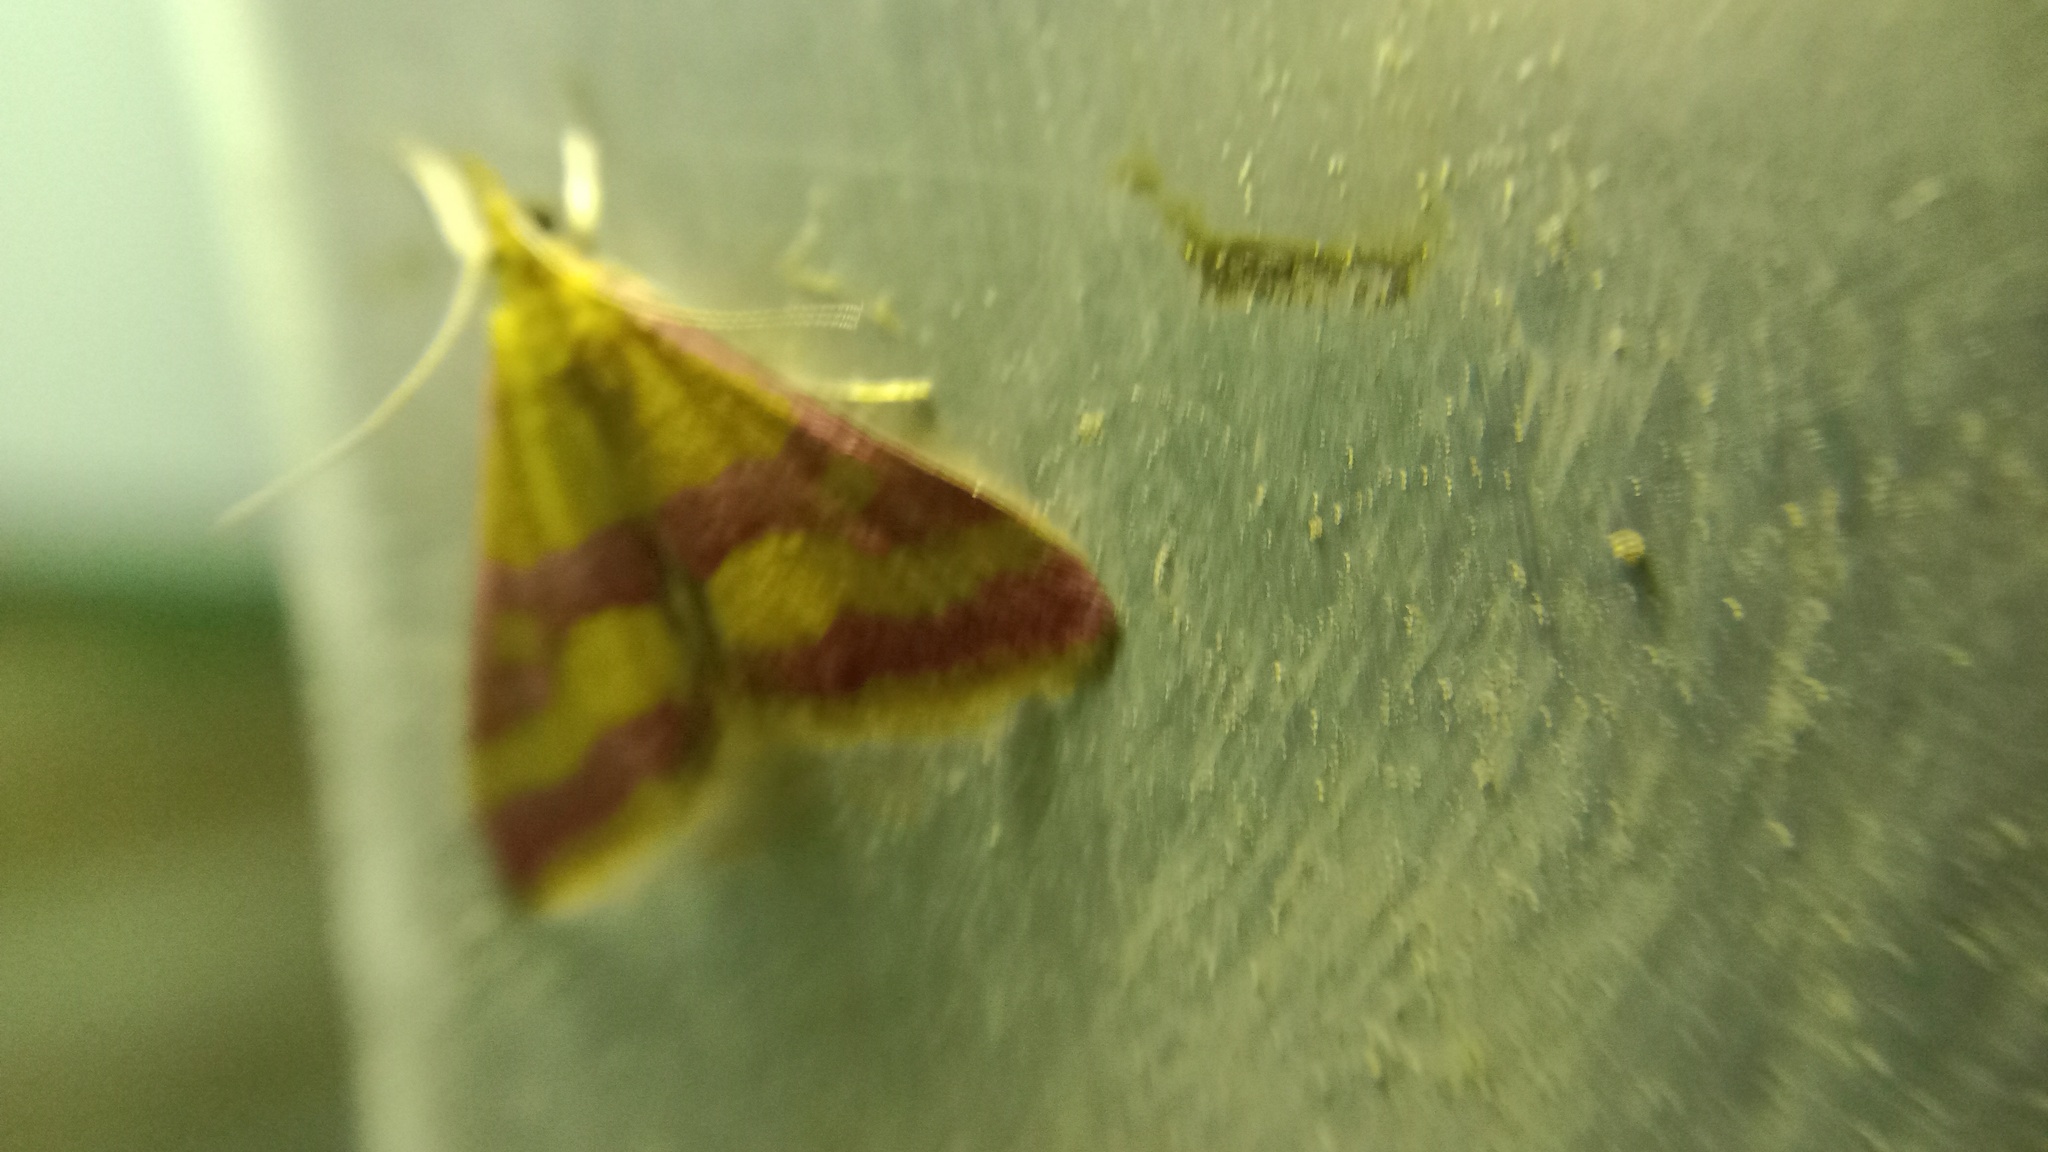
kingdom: Animalia
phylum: Arthropoda
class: Insecta
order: Lepidoptera
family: Crambidae
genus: Pyrausta
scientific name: Pyrausta sanguinalis
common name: Scarce crimson and gold
